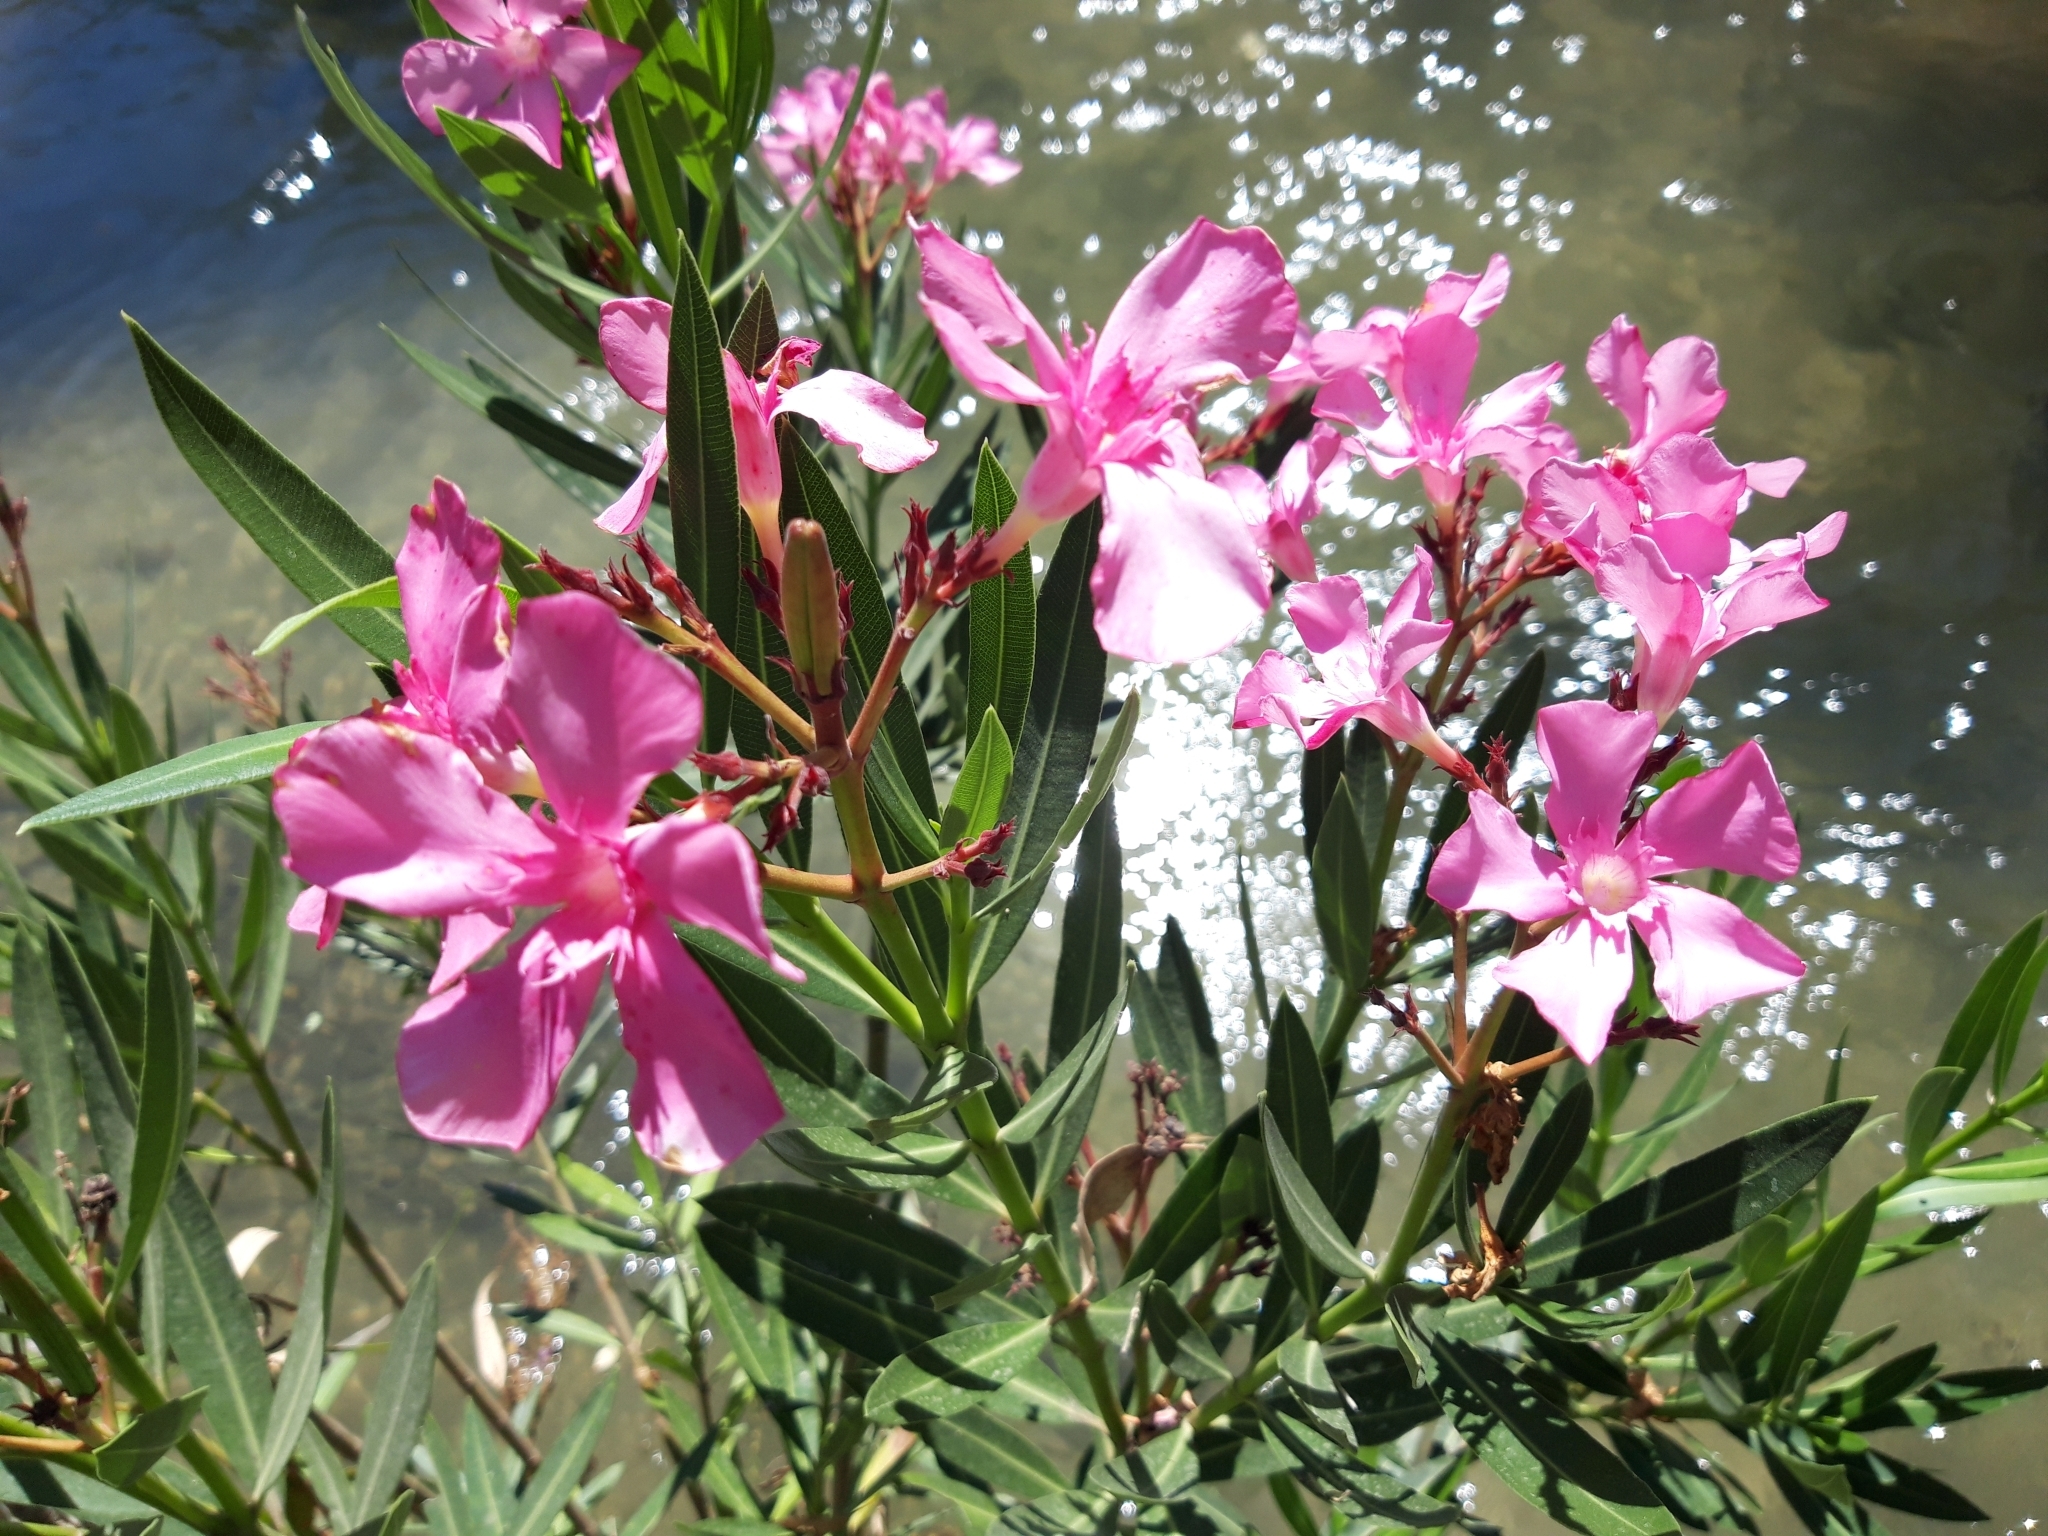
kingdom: Plantae
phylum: Tracheophyta
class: Magnoliopsida
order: Gentianales
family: Apocynaceae
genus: Nerium
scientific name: Nerium oleander
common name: Oleander
